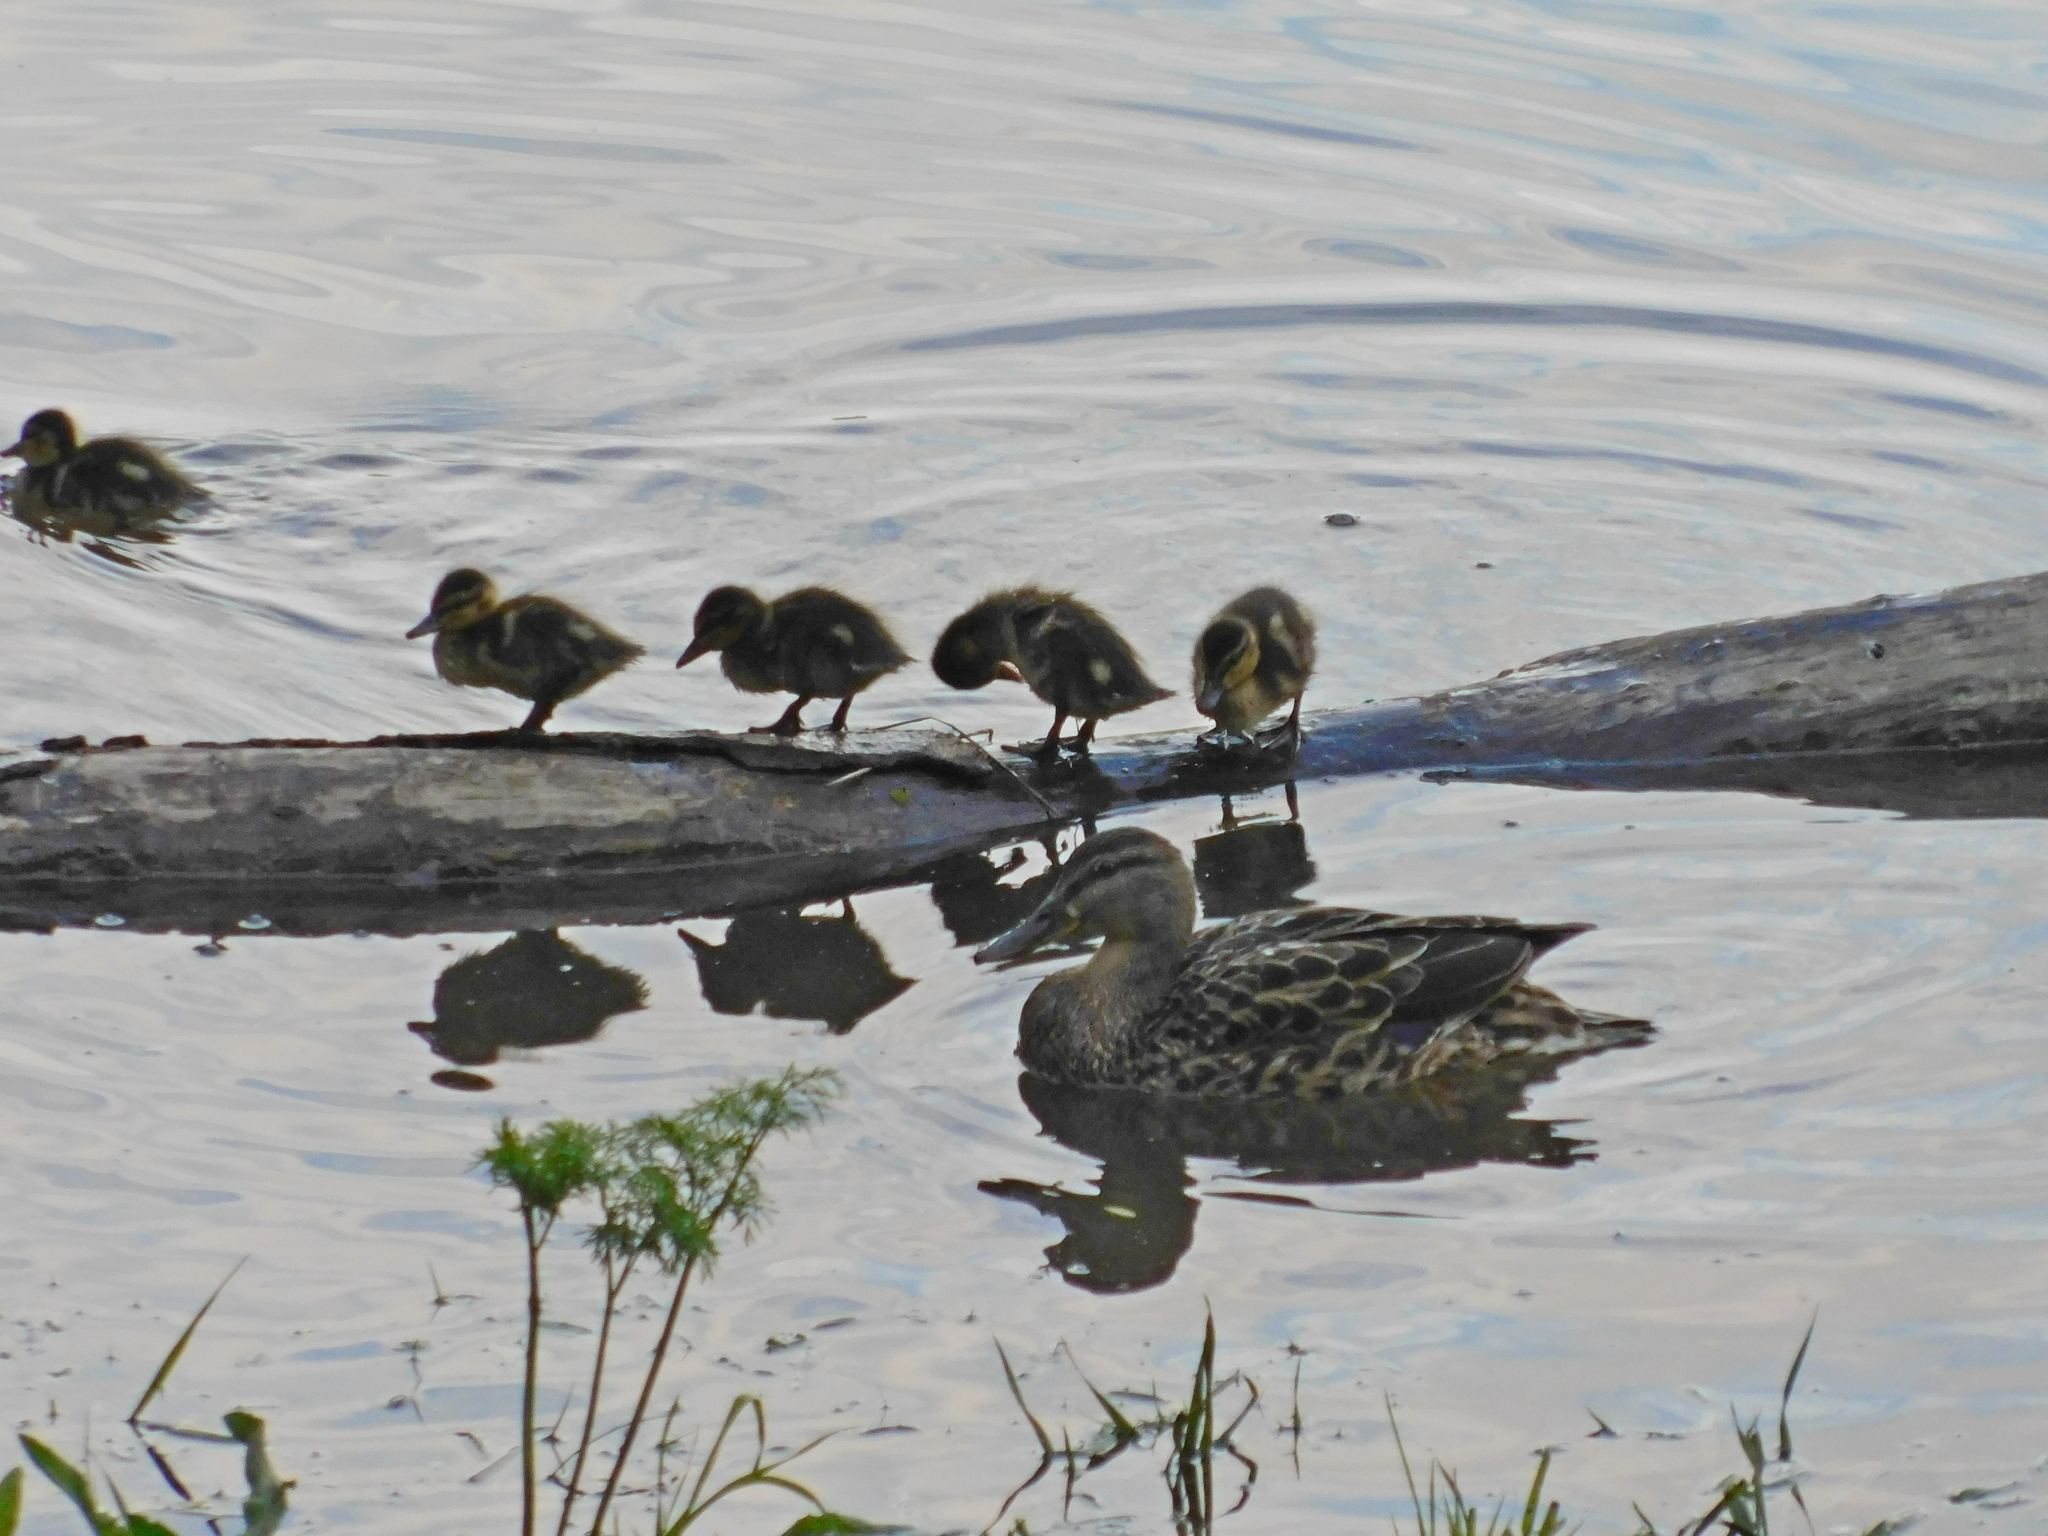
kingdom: Animalia
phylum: Chordata
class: Aves
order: Anseriformes
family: Anatidae
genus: Anas
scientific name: Anas platyrhynchos
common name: Mallard
